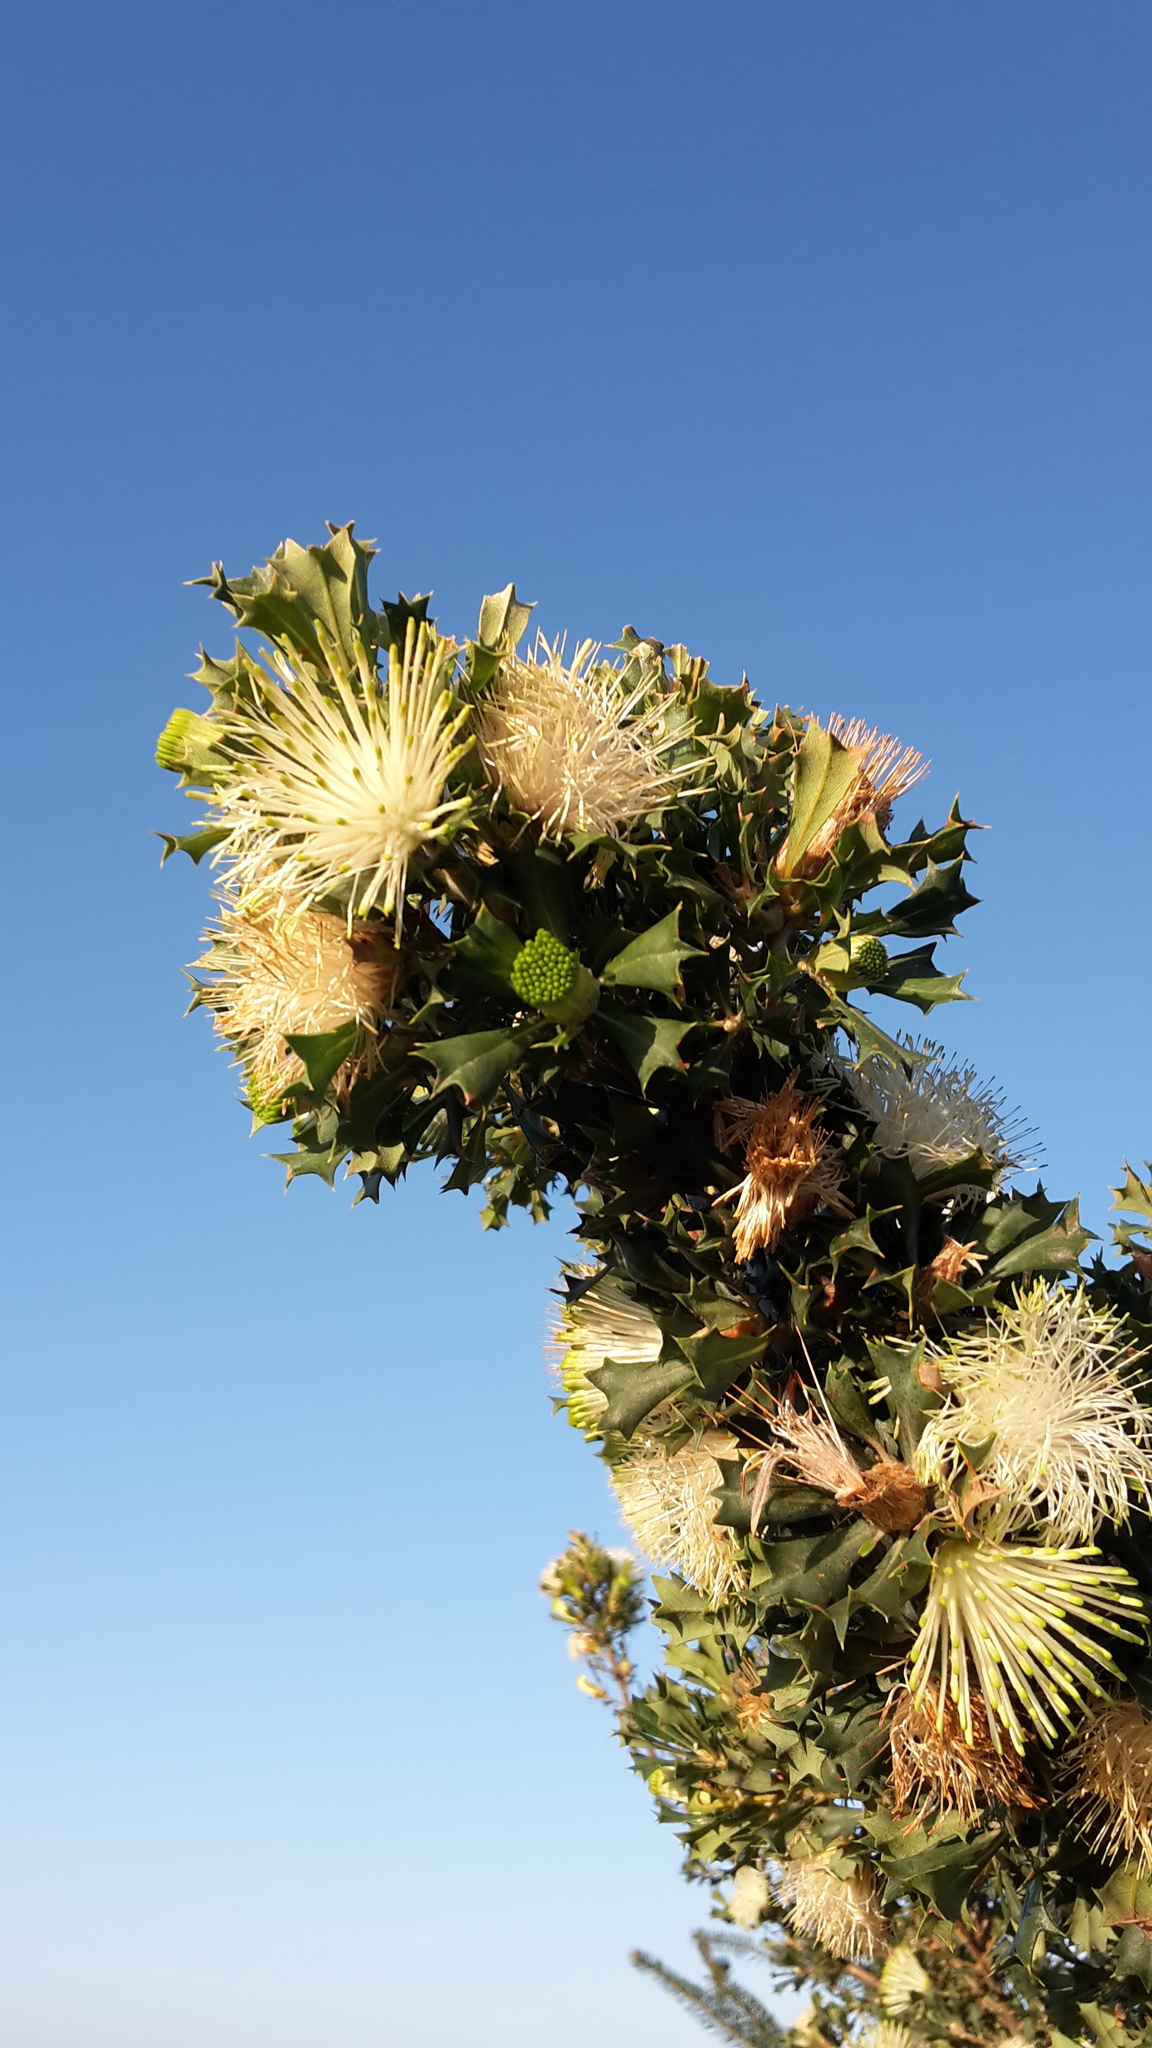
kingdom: Plantae
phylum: Tracheophyta
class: Magnoliopsida
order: Proteales
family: Proteaceae
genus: Banksia
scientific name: Banksia sessilis
